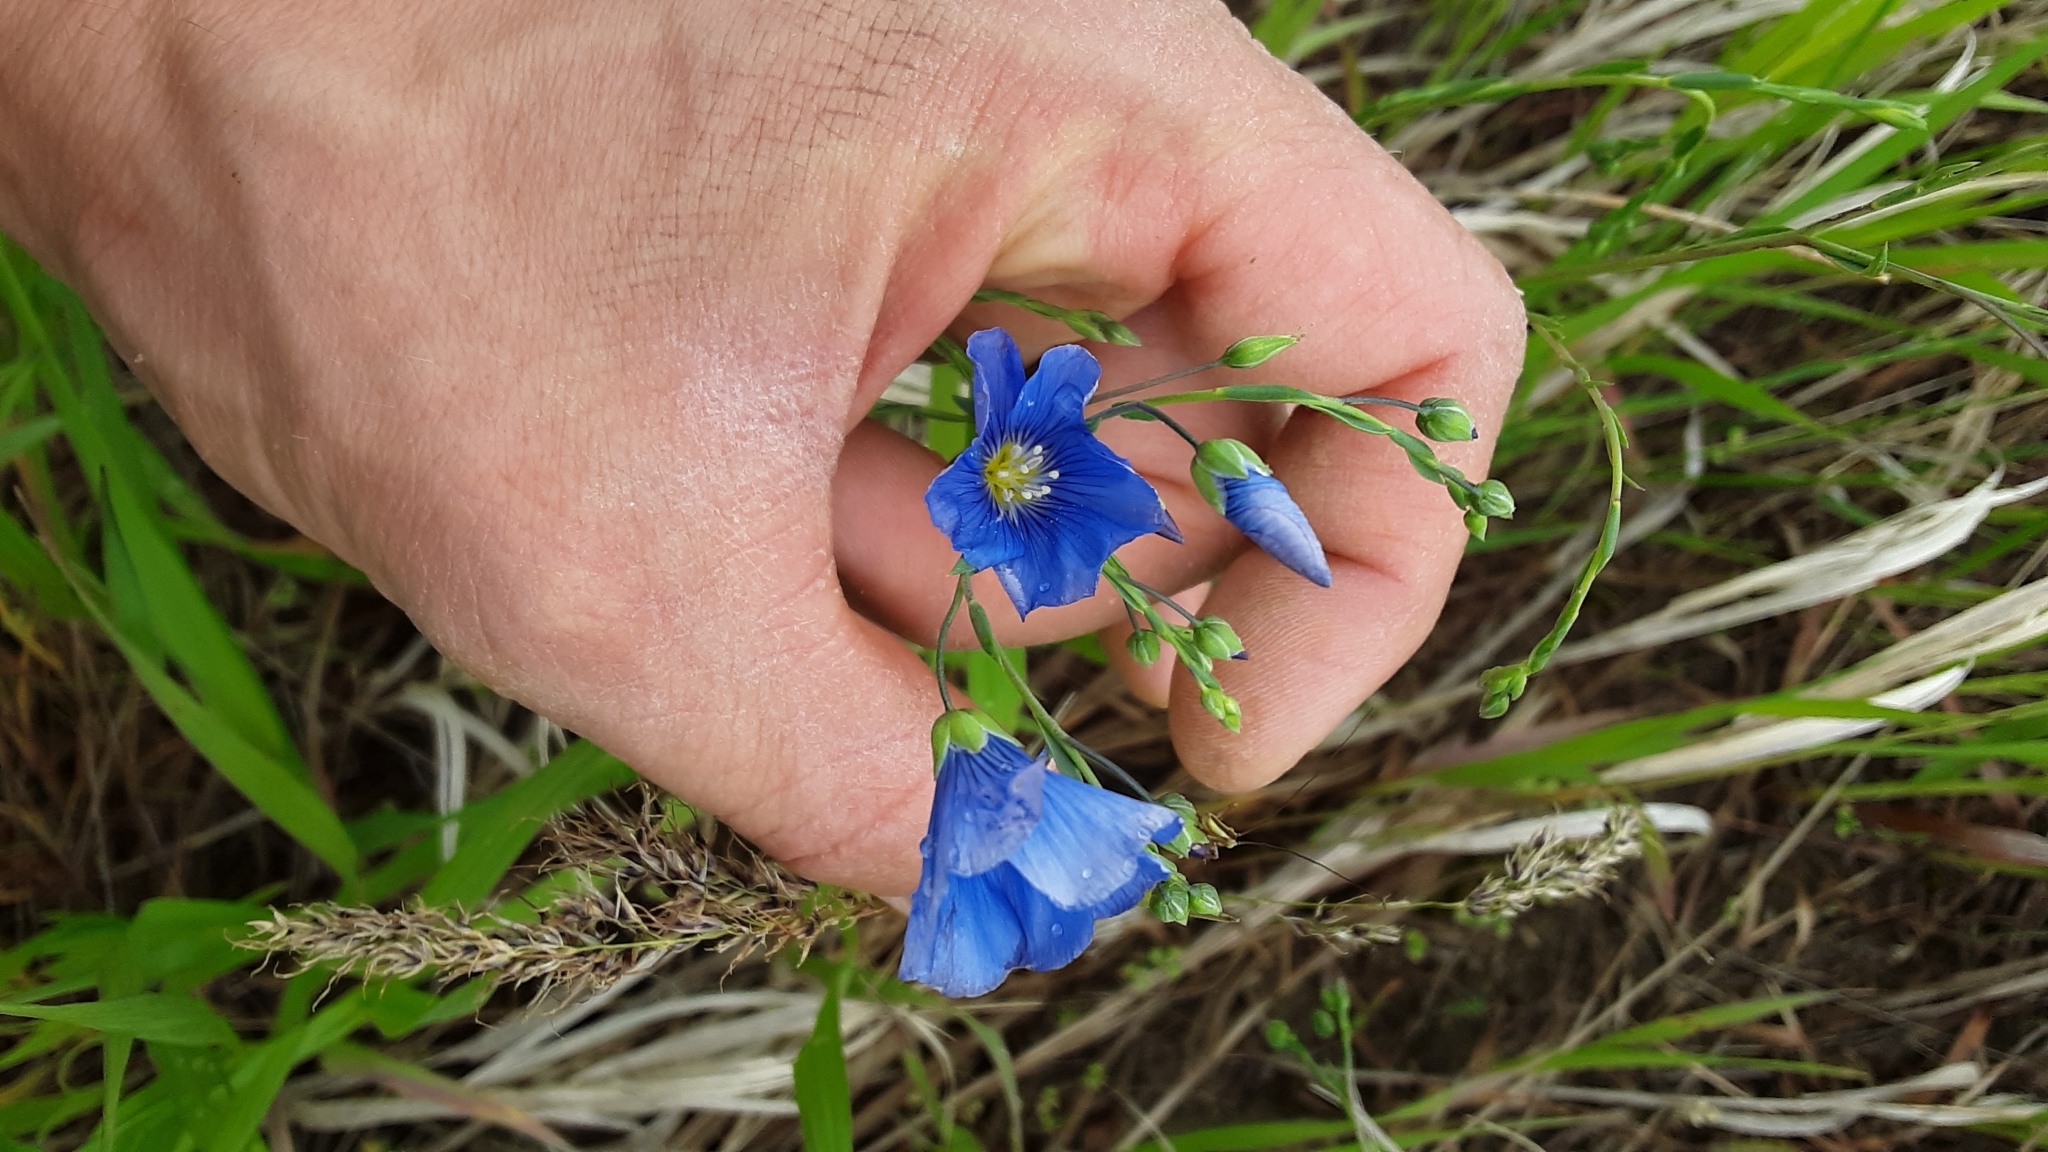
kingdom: Plantae
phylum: Tracheophyta
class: Magnoliopsida
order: Malpighiales
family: Linaceae
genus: Linum
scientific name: Linum lewisii
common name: Prairie flax
